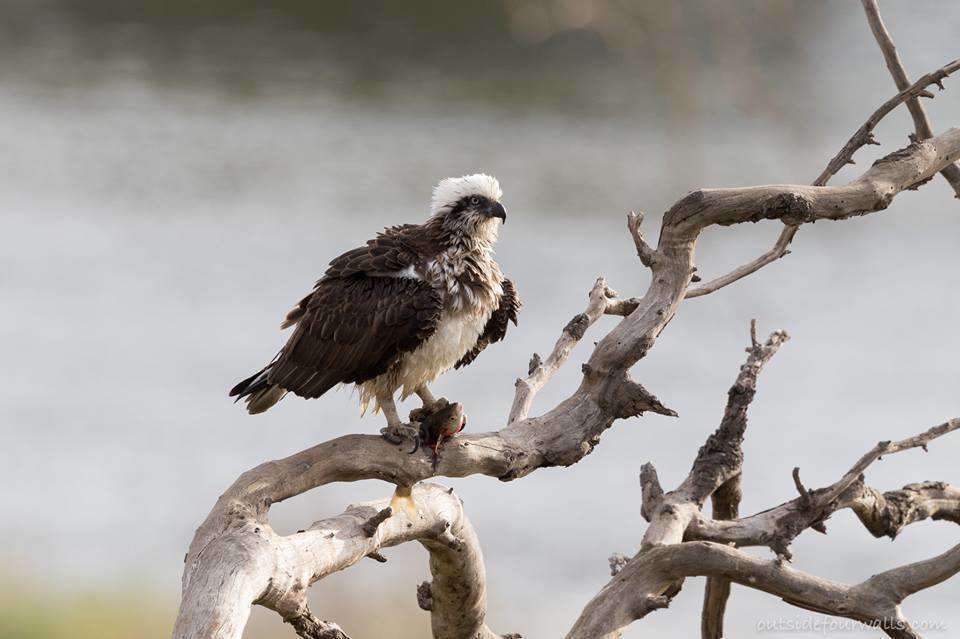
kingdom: Animalia
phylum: Chordata
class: Aves
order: Accipitriformes
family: Pandionidae
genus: Pandion
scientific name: Pandion cristatus
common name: Eastern osprey
